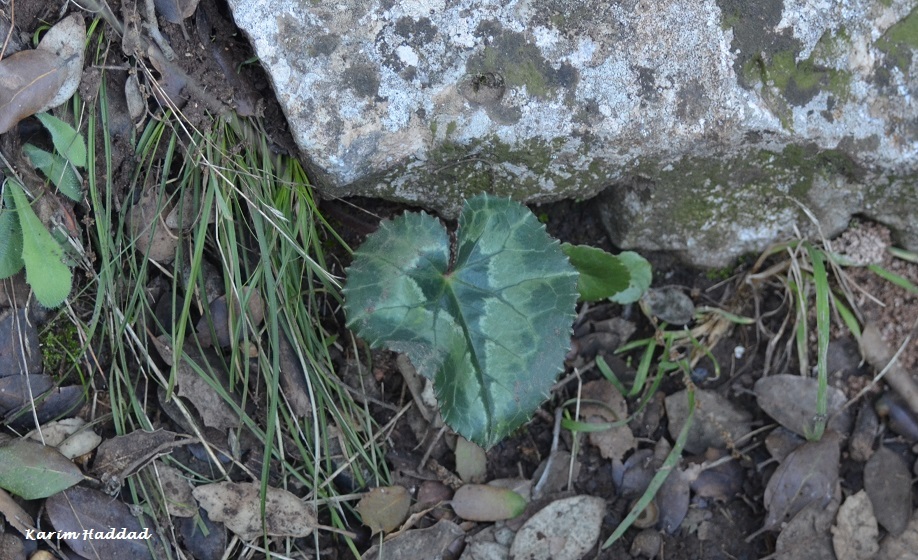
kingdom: Plantae
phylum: Tracheophyta
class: Magnoliopsida
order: Ericales
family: Primulaceae
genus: Cyclamen
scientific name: Cyclamen africanum
